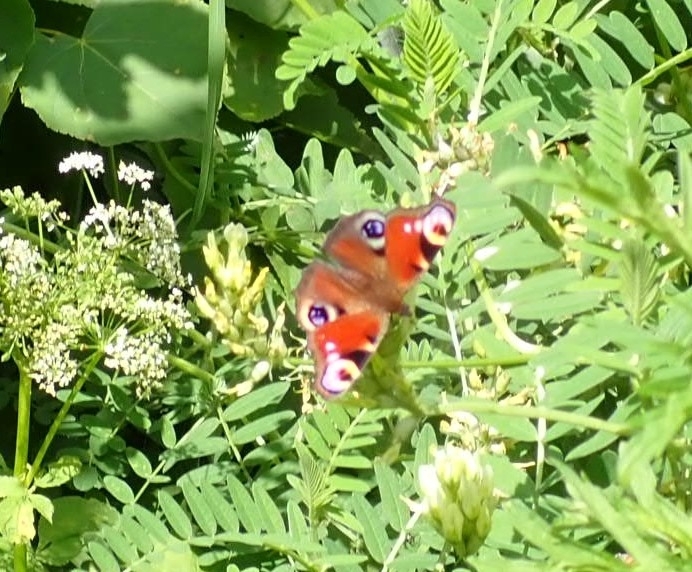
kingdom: Animalia
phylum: Arthropoda
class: Insecta
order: Lepidoptera
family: Nymphalidae
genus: Aglais
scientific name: Aglais io
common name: Peacock
